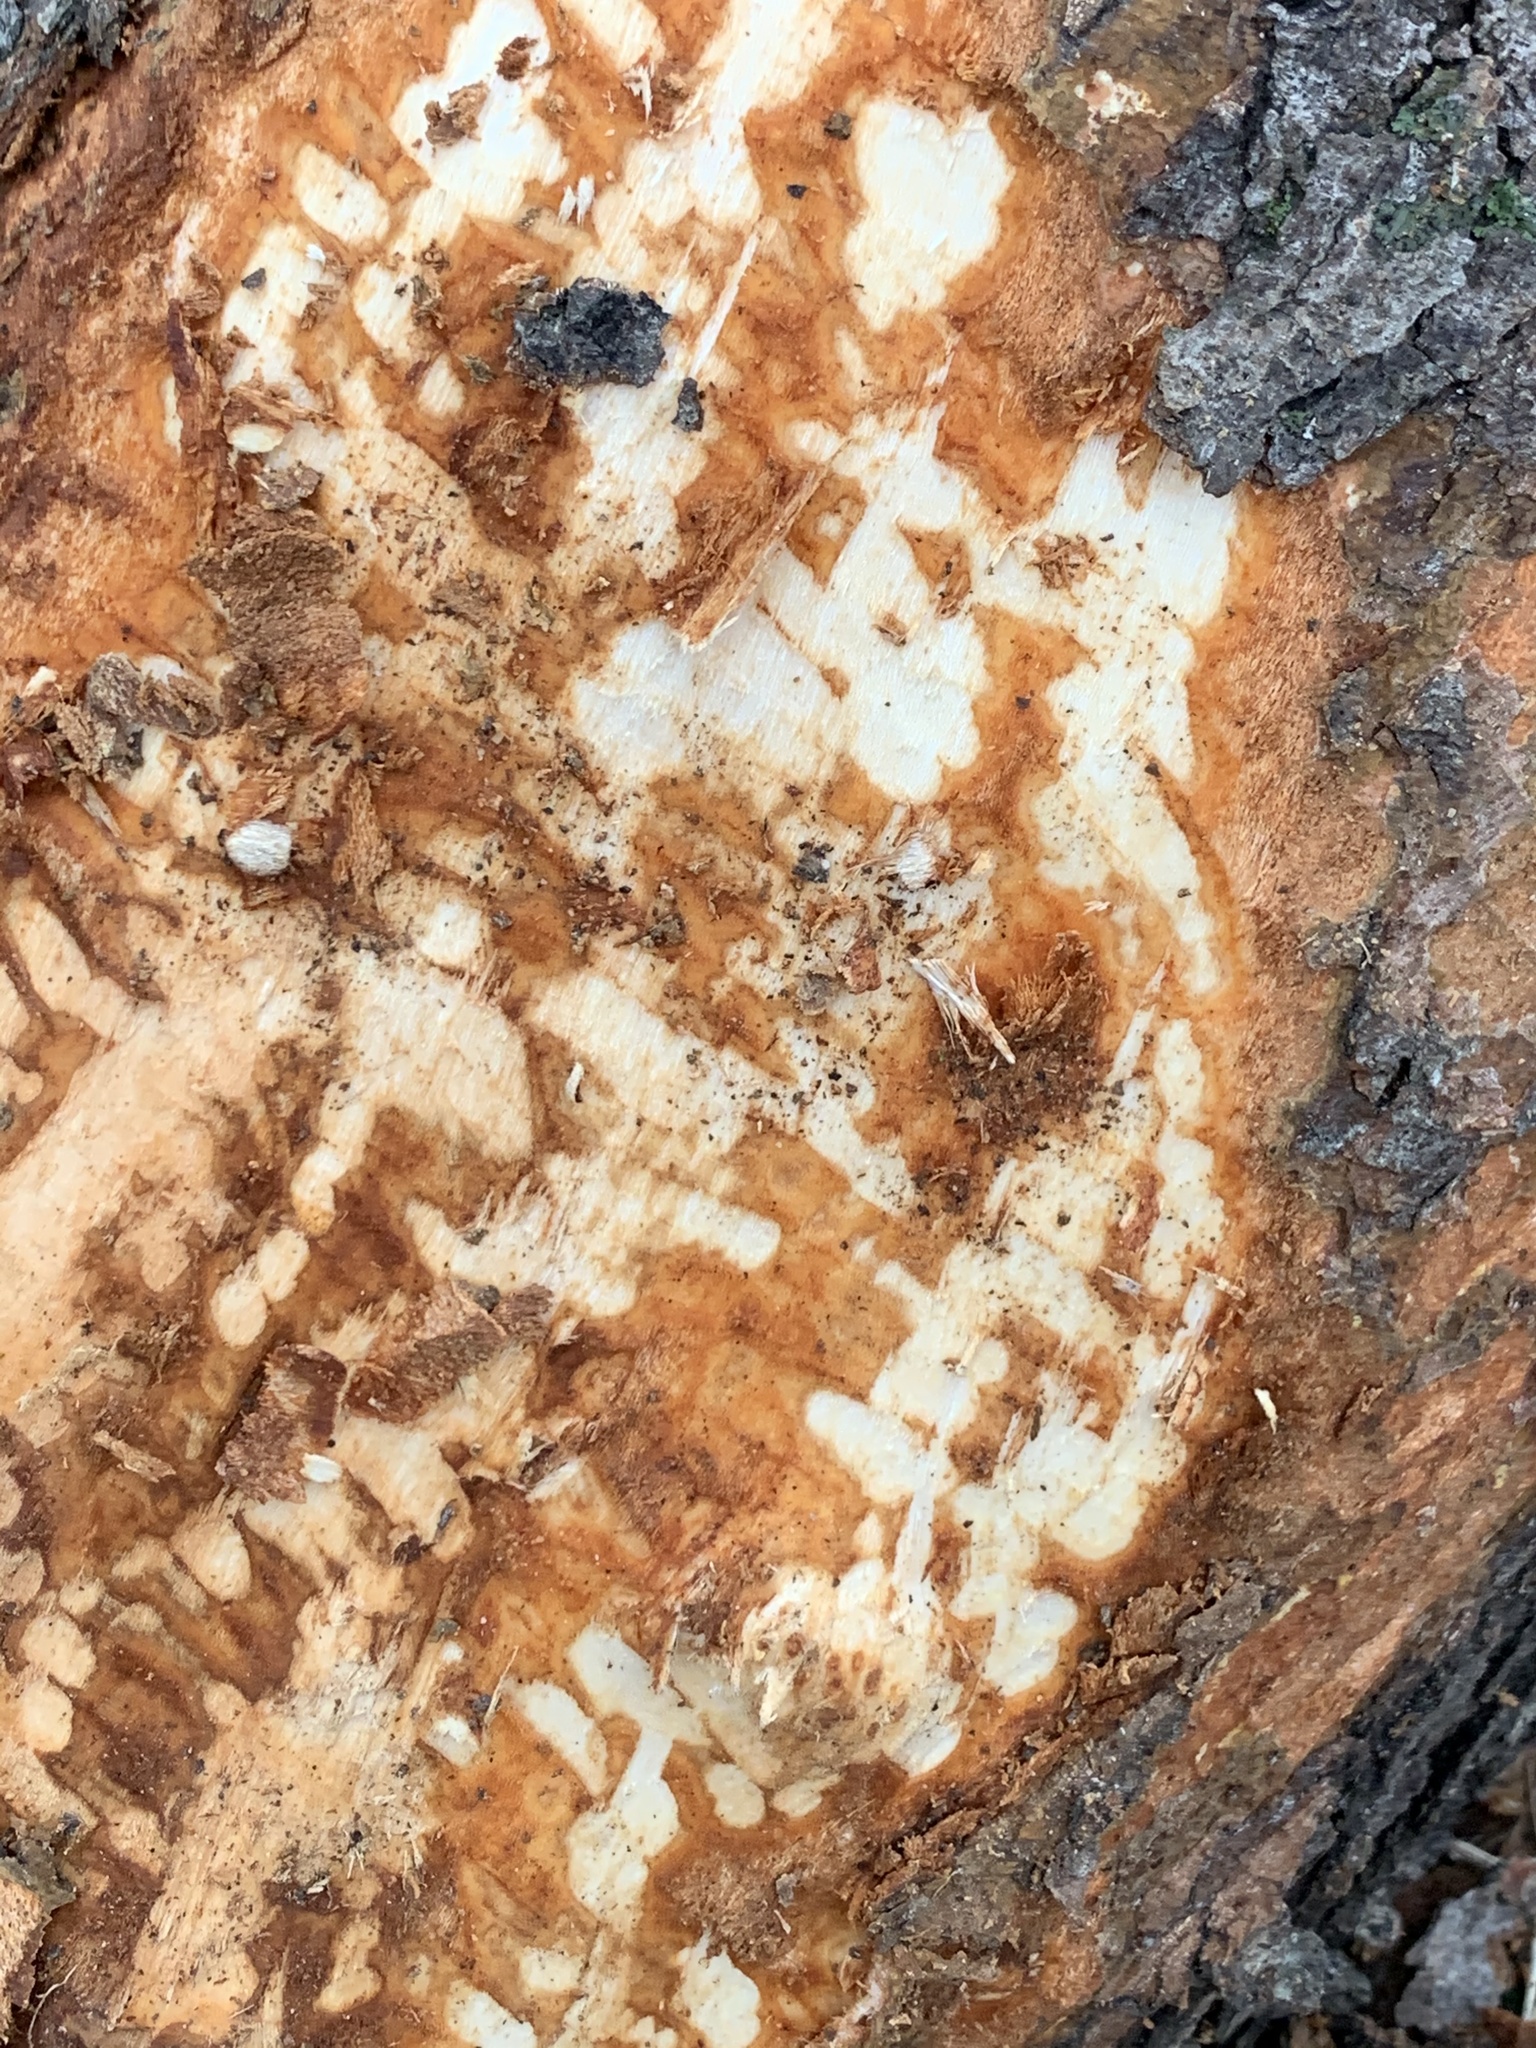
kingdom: Animalia
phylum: Chordata
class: Mammalia
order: Lagomorpha
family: Leporidae
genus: Sylvilagus
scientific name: Sylvilagus floridanus
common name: Eastern cottontail
